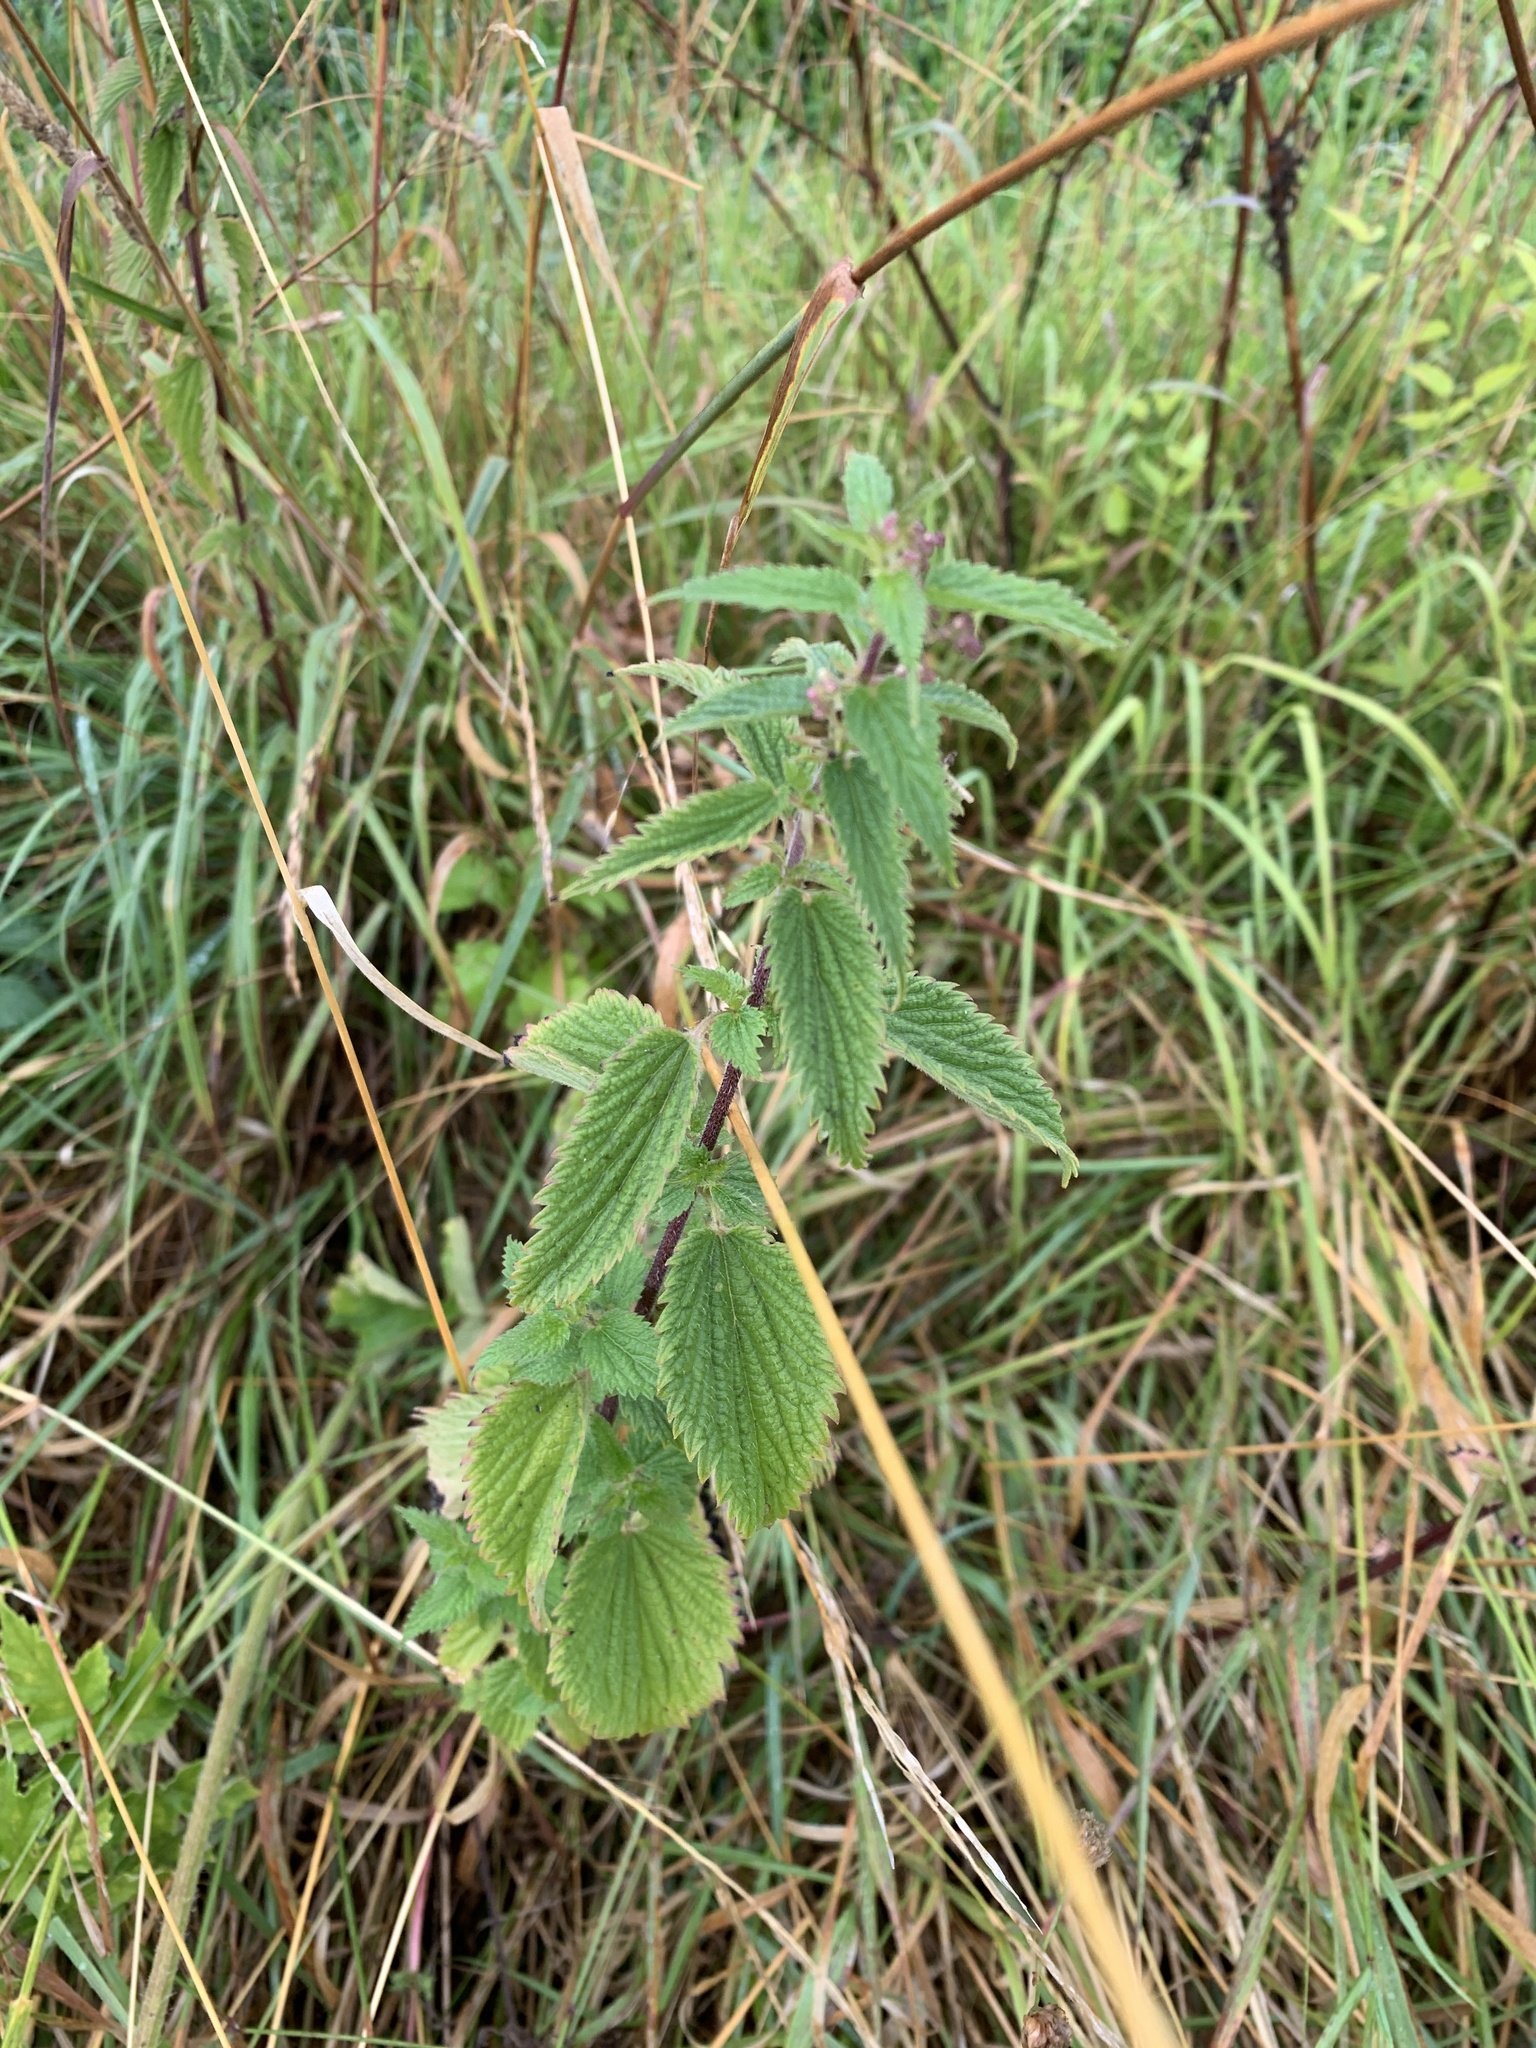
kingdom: Plantae
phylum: Tracheophyta
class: Magnoliopsida
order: Rosales
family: Urticaceae
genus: Urtica
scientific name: Urtica dioica
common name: Common nettle
